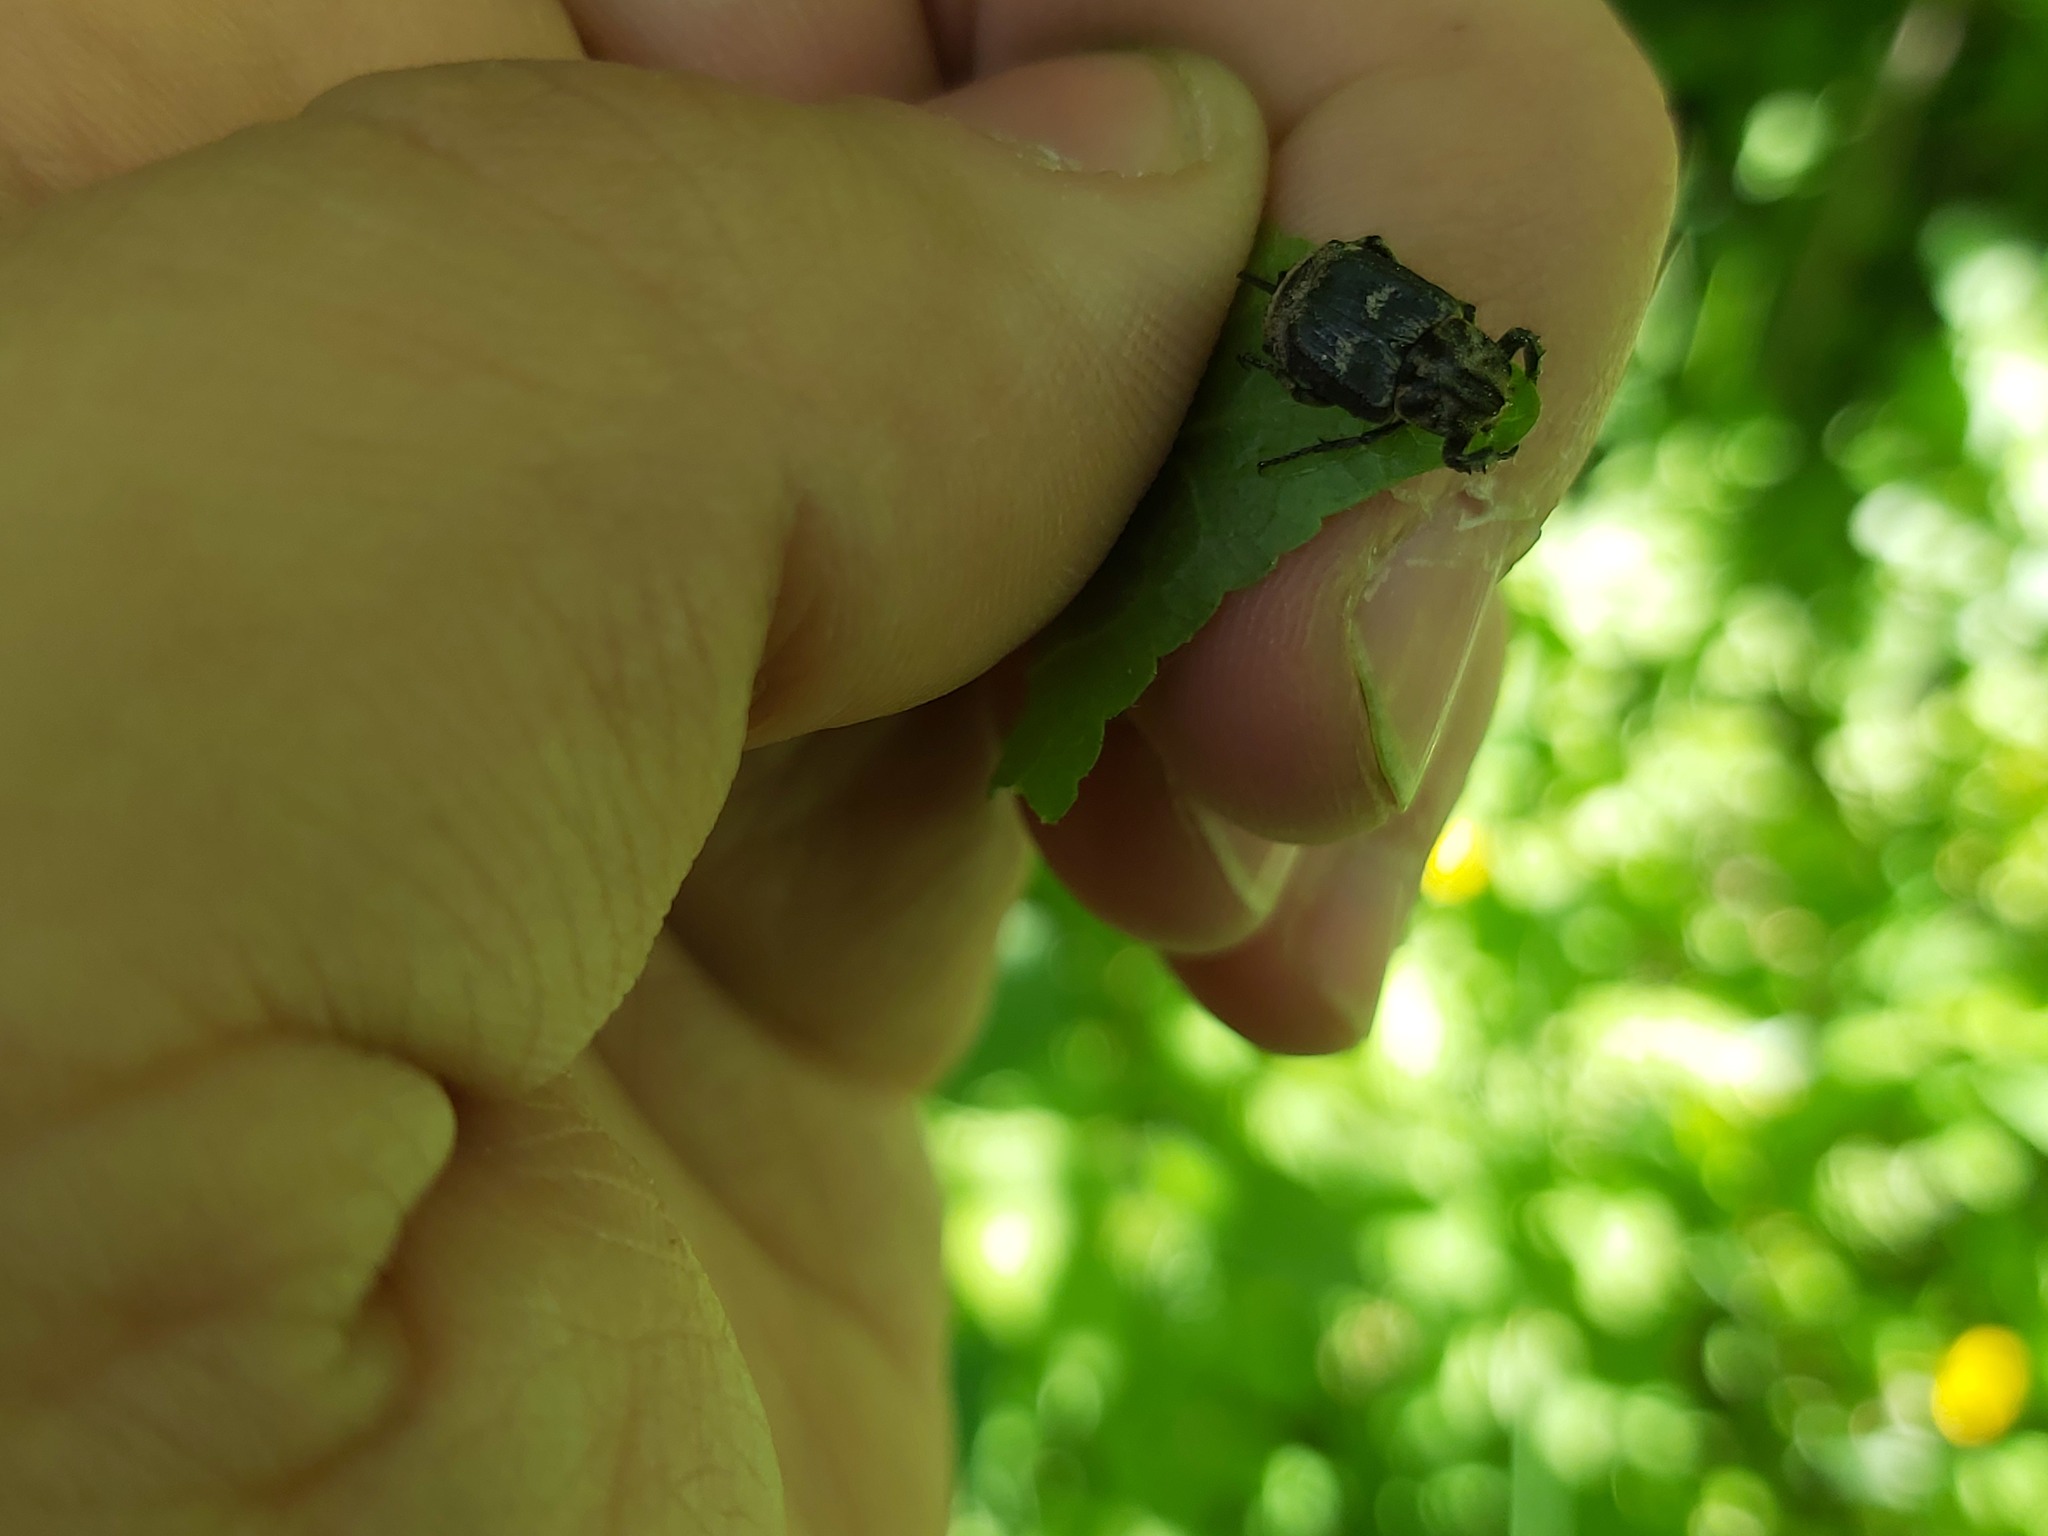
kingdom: Animalia
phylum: Arthropoda
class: Insecta
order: Coleoptera
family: Scarabaeidae
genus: Valgus
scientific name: Valgus hemipterus
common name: Bug flower chafer
